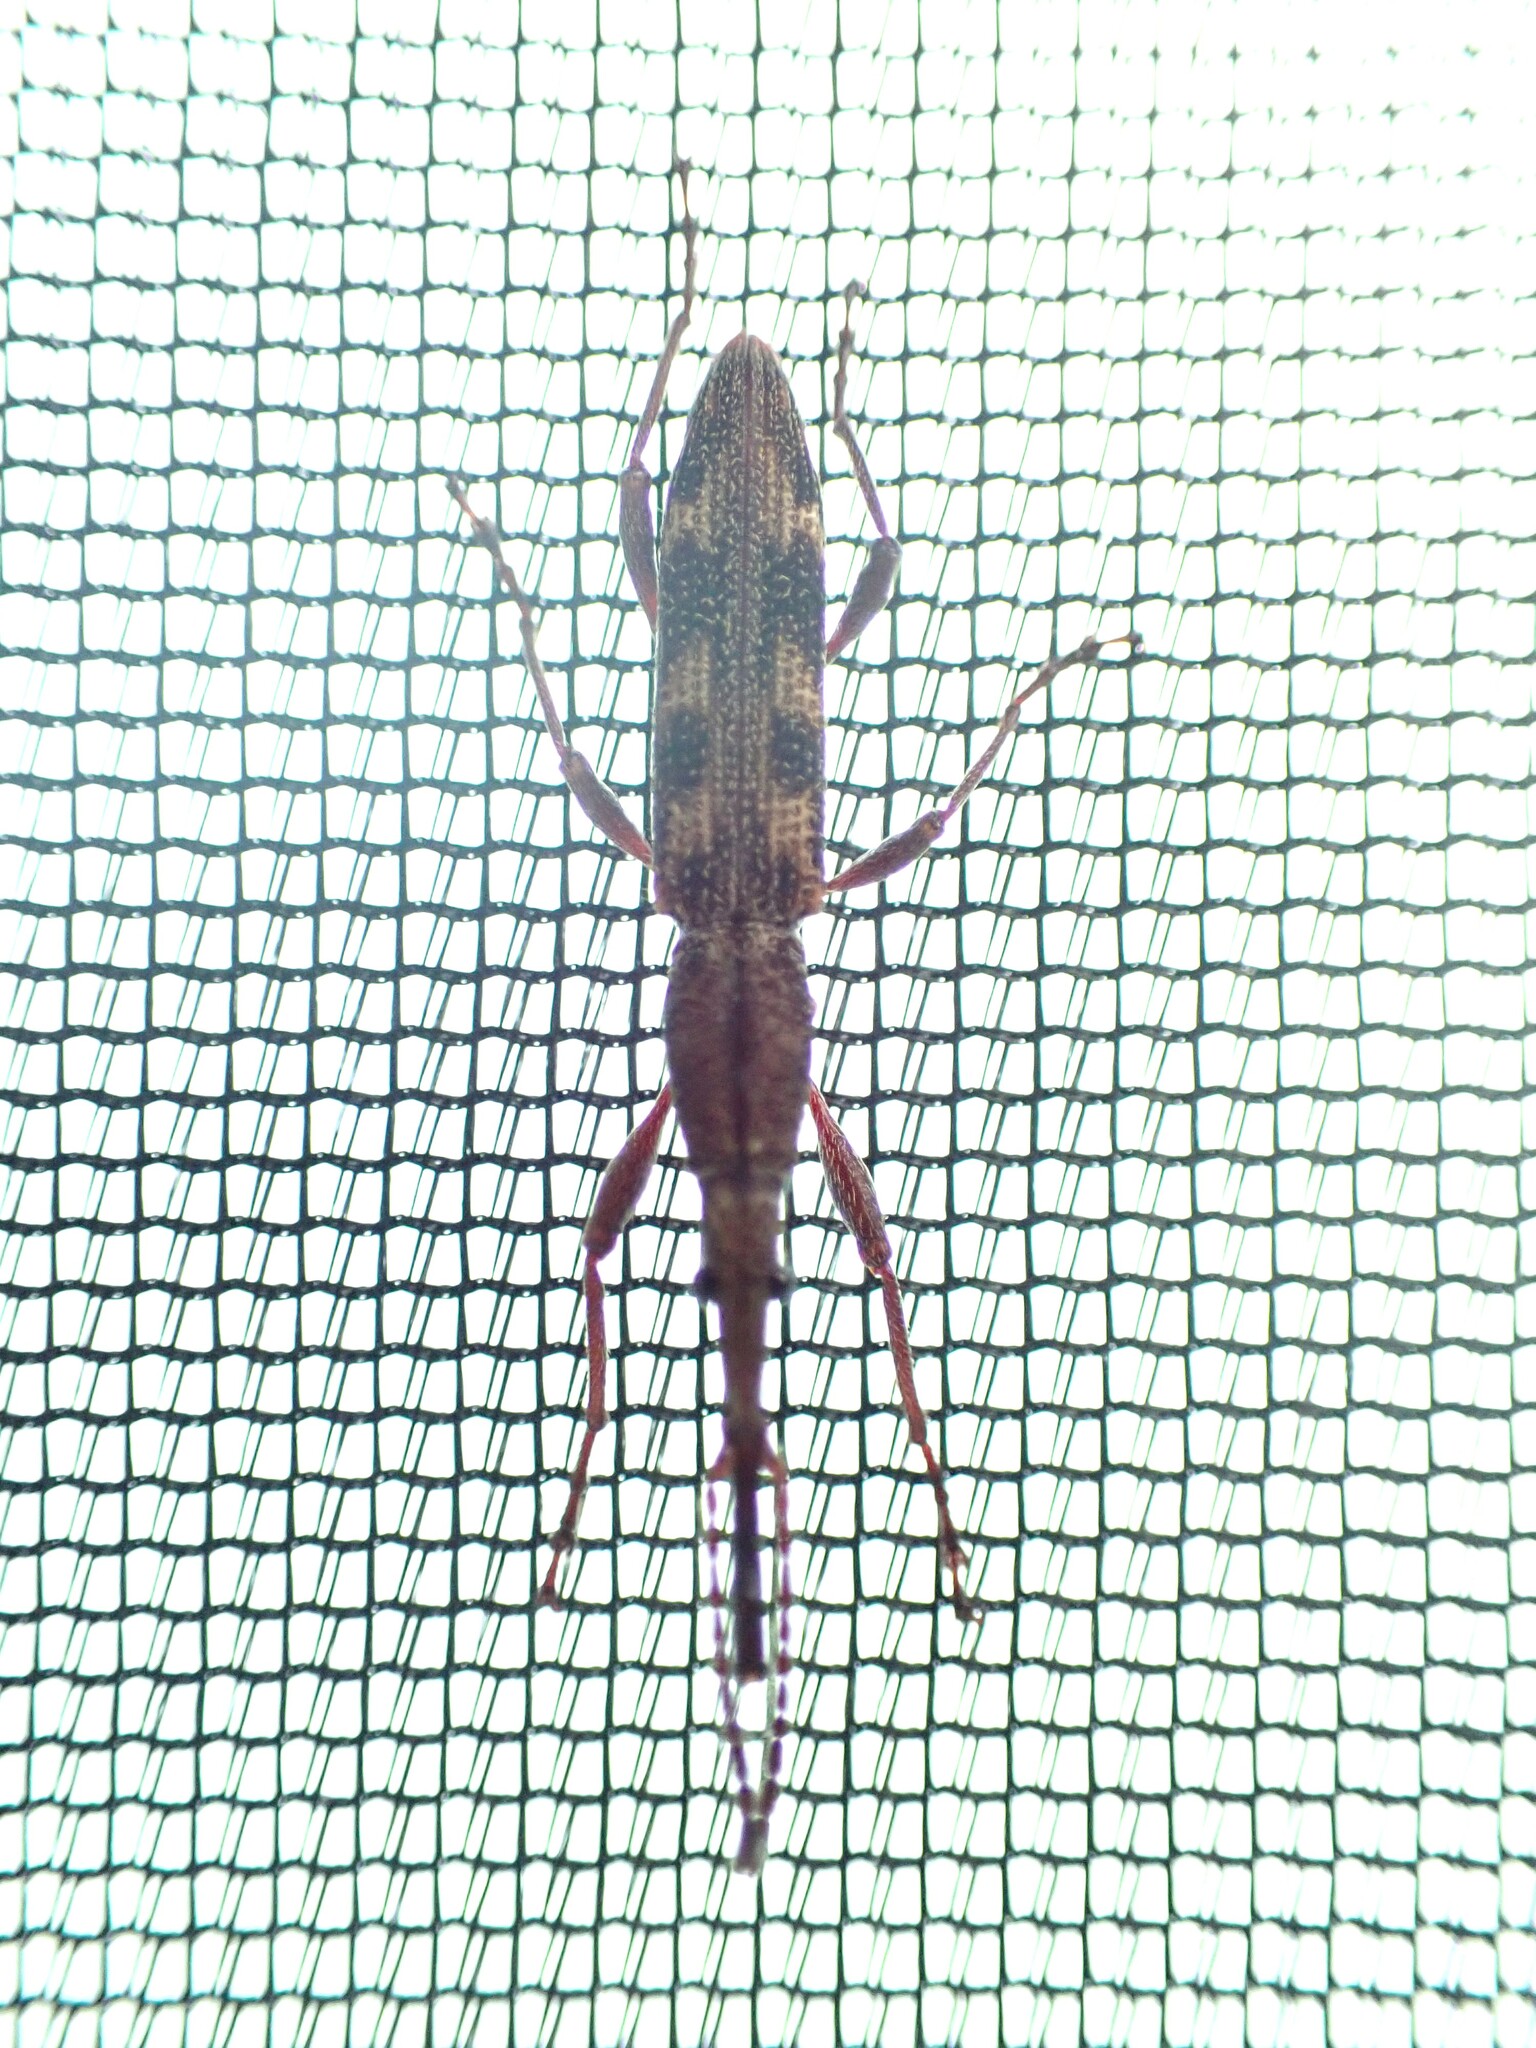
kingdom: Animalia
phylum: Arthropoda
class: Insecta
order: Coleoptera
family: Brentidae
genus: Lasiorhynchus
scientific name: Lasiorhynchus barbicornis
